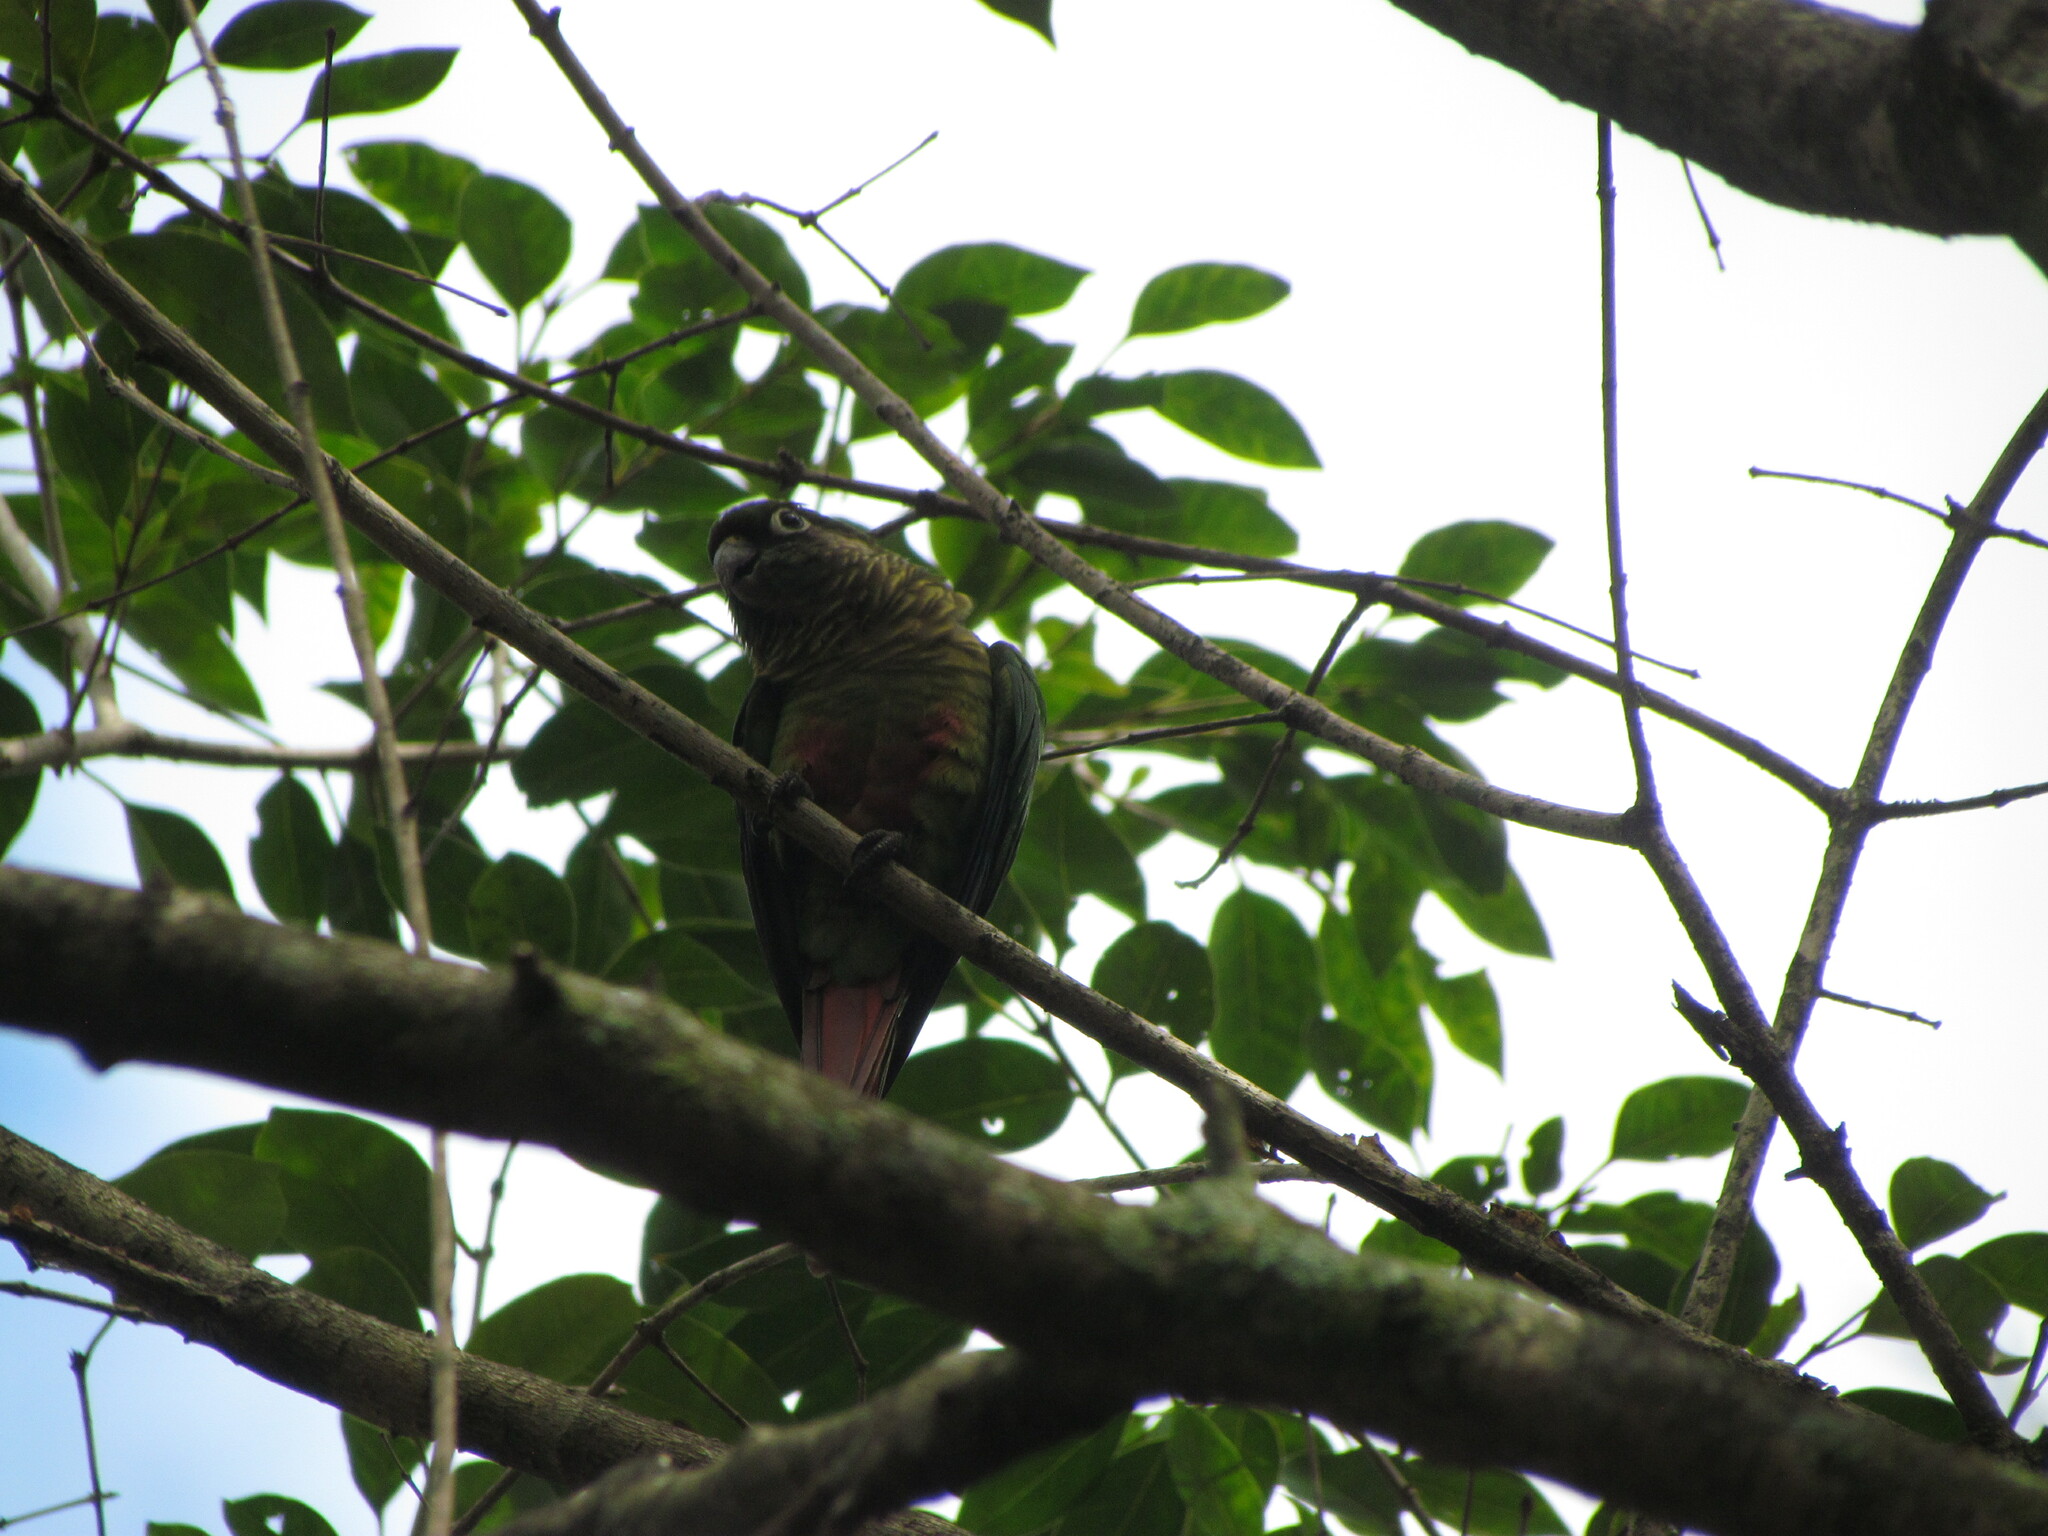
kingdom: Animalia
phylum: Chordata
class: Aves
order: Psittaciformes
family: Psittacidae
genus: Pyrrhura
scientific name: Pyrrhura frontalis
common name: Maroon-bellied parakeet
